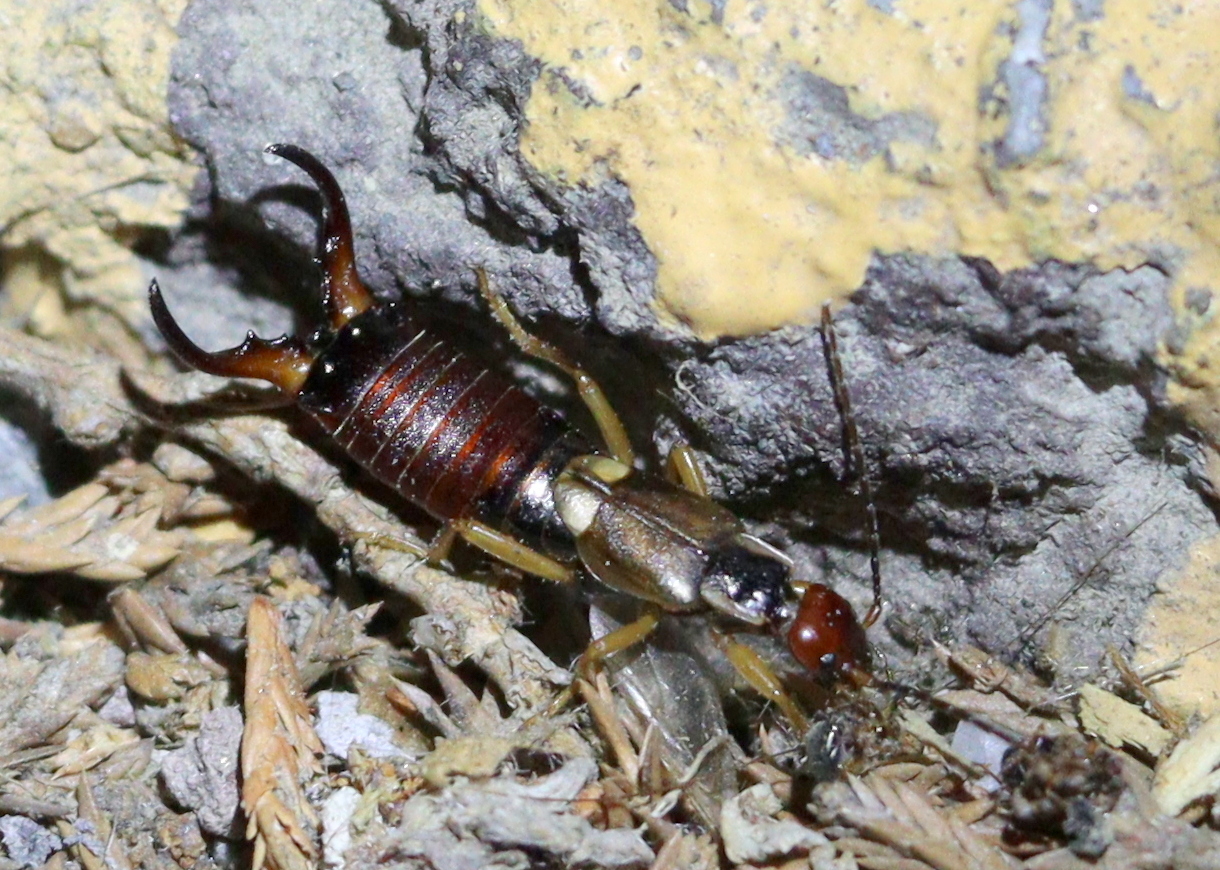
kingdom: Animalia
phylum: Arthropoda
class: Insecta
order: Dermaptera
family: Forficulidae
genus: Forficula
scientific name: Forficula
